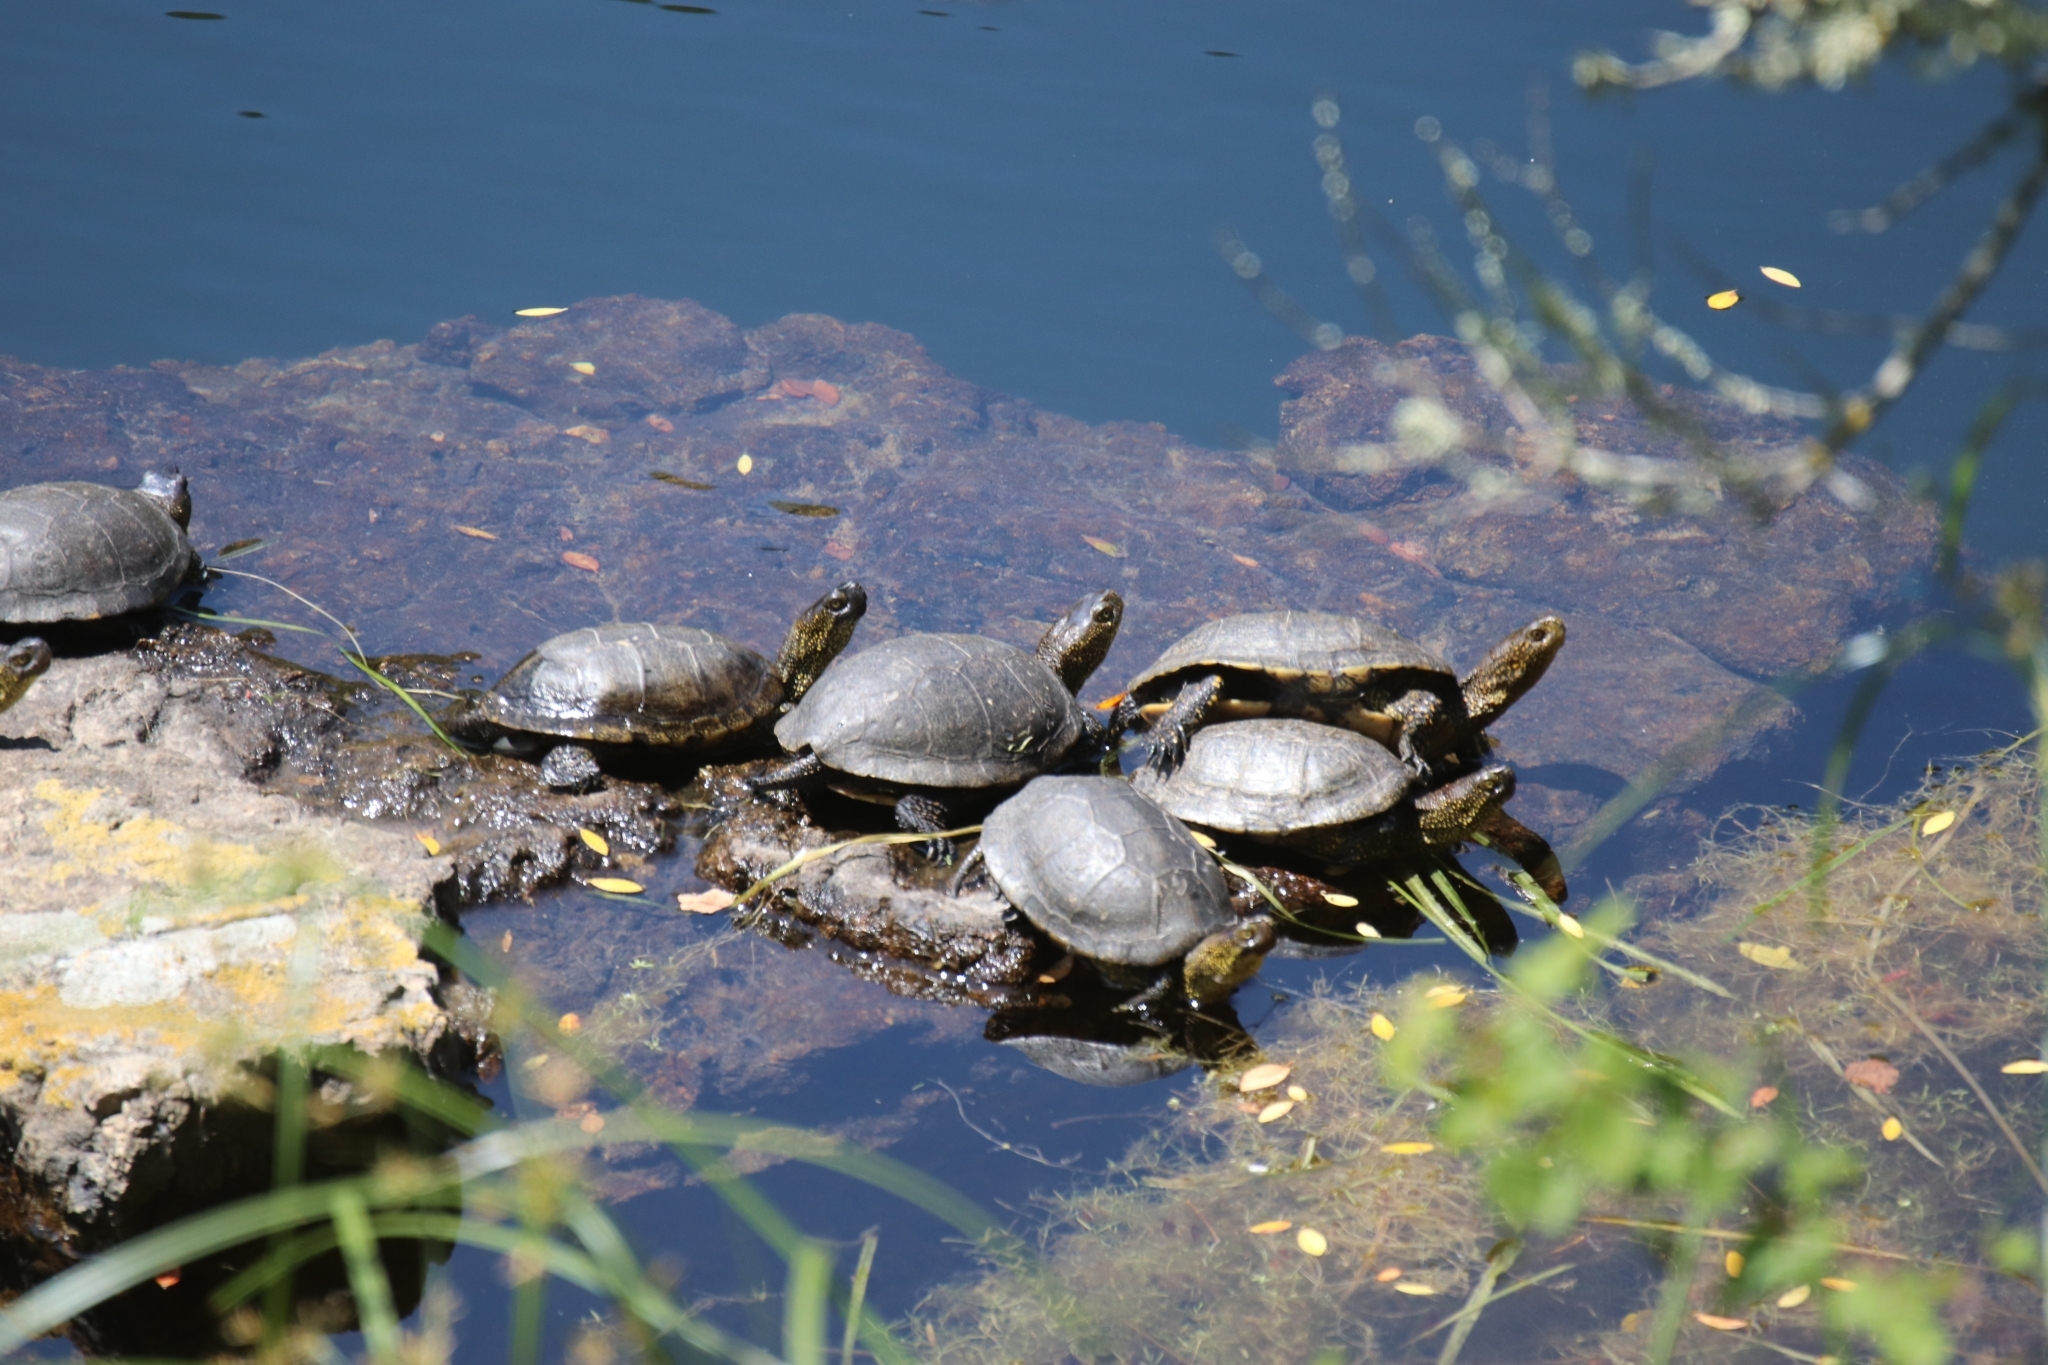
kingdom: Animalia
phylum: Chordata
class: Testudines
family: Emydidae
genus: Emys
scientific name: Emys orbicularis
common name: European pond turtle
